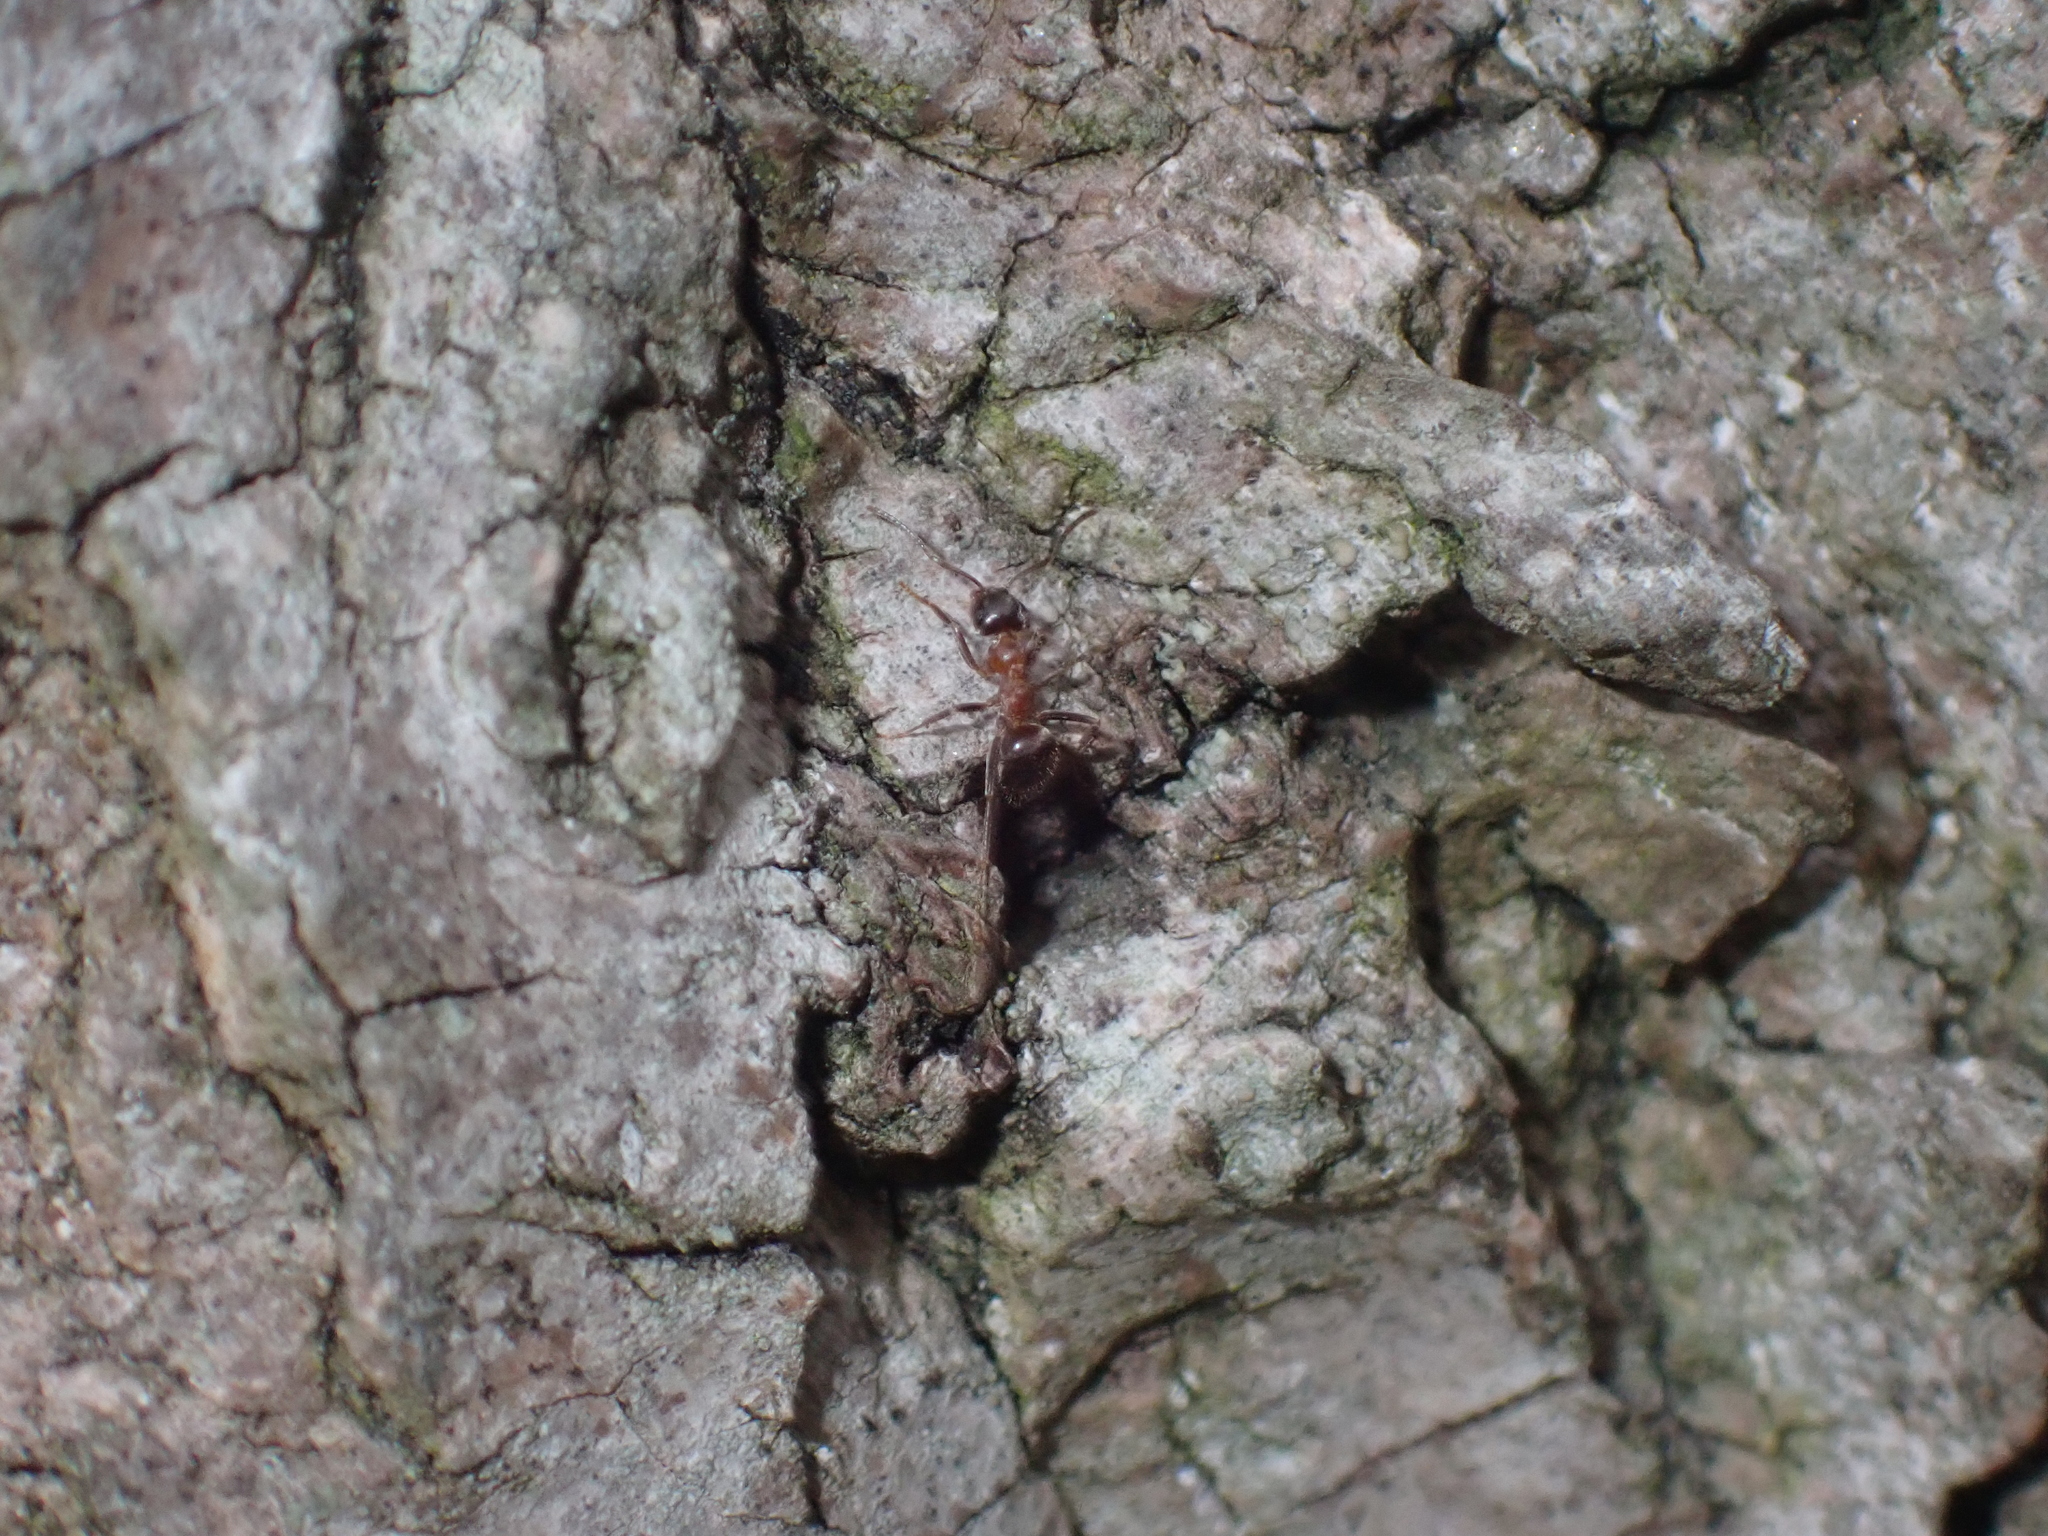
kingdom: Animalia
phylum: Arthropoda
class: Insecta
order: Hymenoptera
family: Formicidae
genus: Lasius
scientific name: Lasius emarginatus
